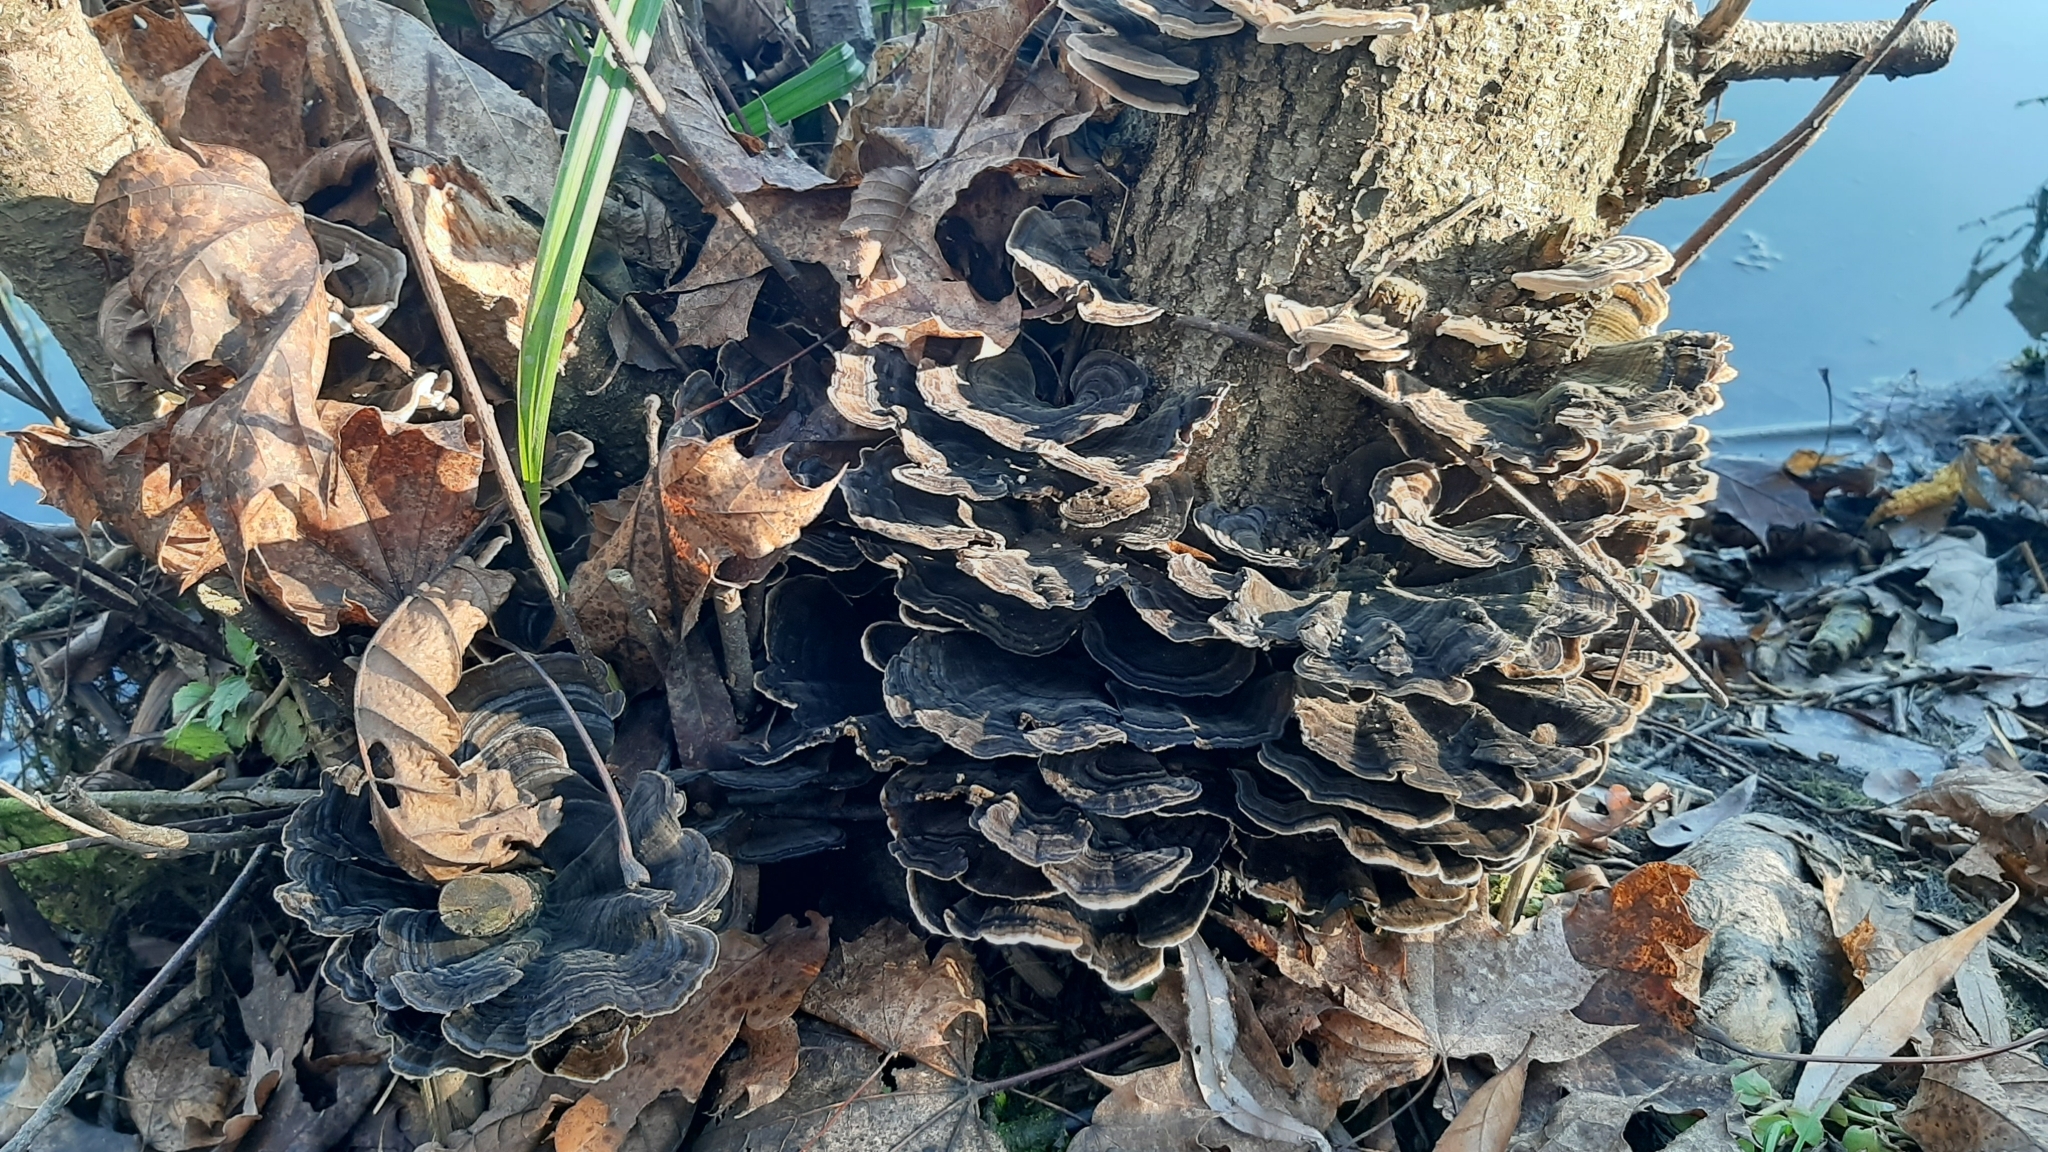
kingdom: Fungi
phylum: Basidiomycota
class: Agaricomycetes
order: Polyporales
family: Polyporaceae
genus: Trametes
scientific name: Trametes versicolor
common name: Turkeytail
